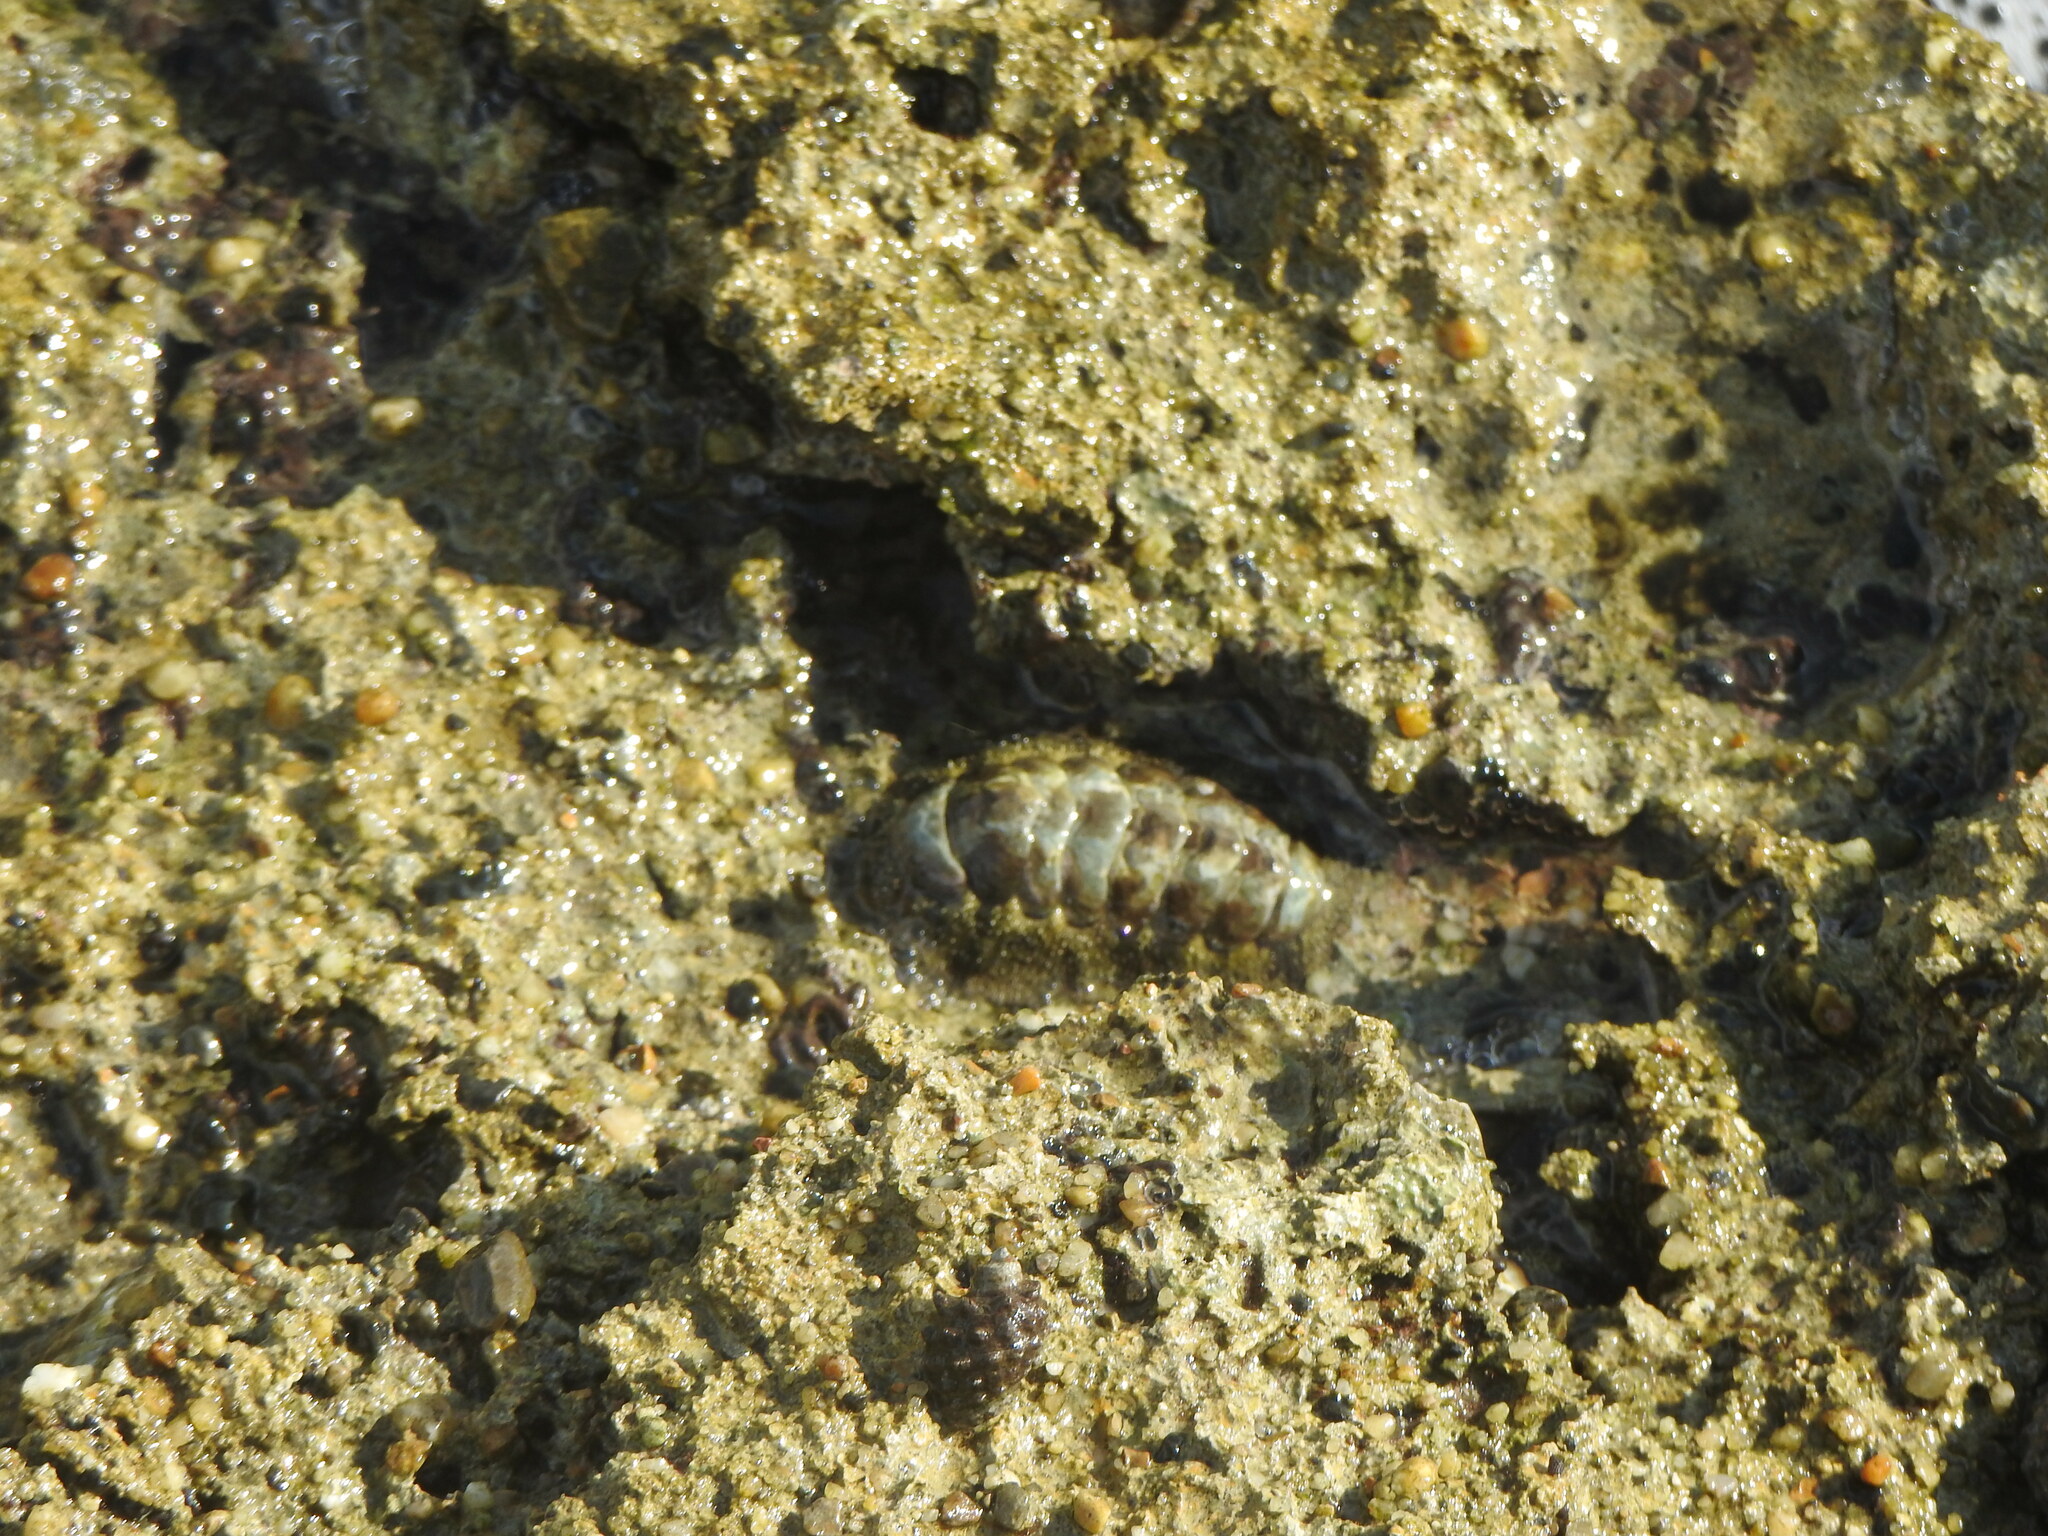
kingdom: Animalia
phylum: Mollusca
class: Polyplacophora
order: Chitonida
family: Chitonidae
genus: Acanthopleura
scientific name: Acanthopleura granulata
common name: West indian fuzzy chiton
